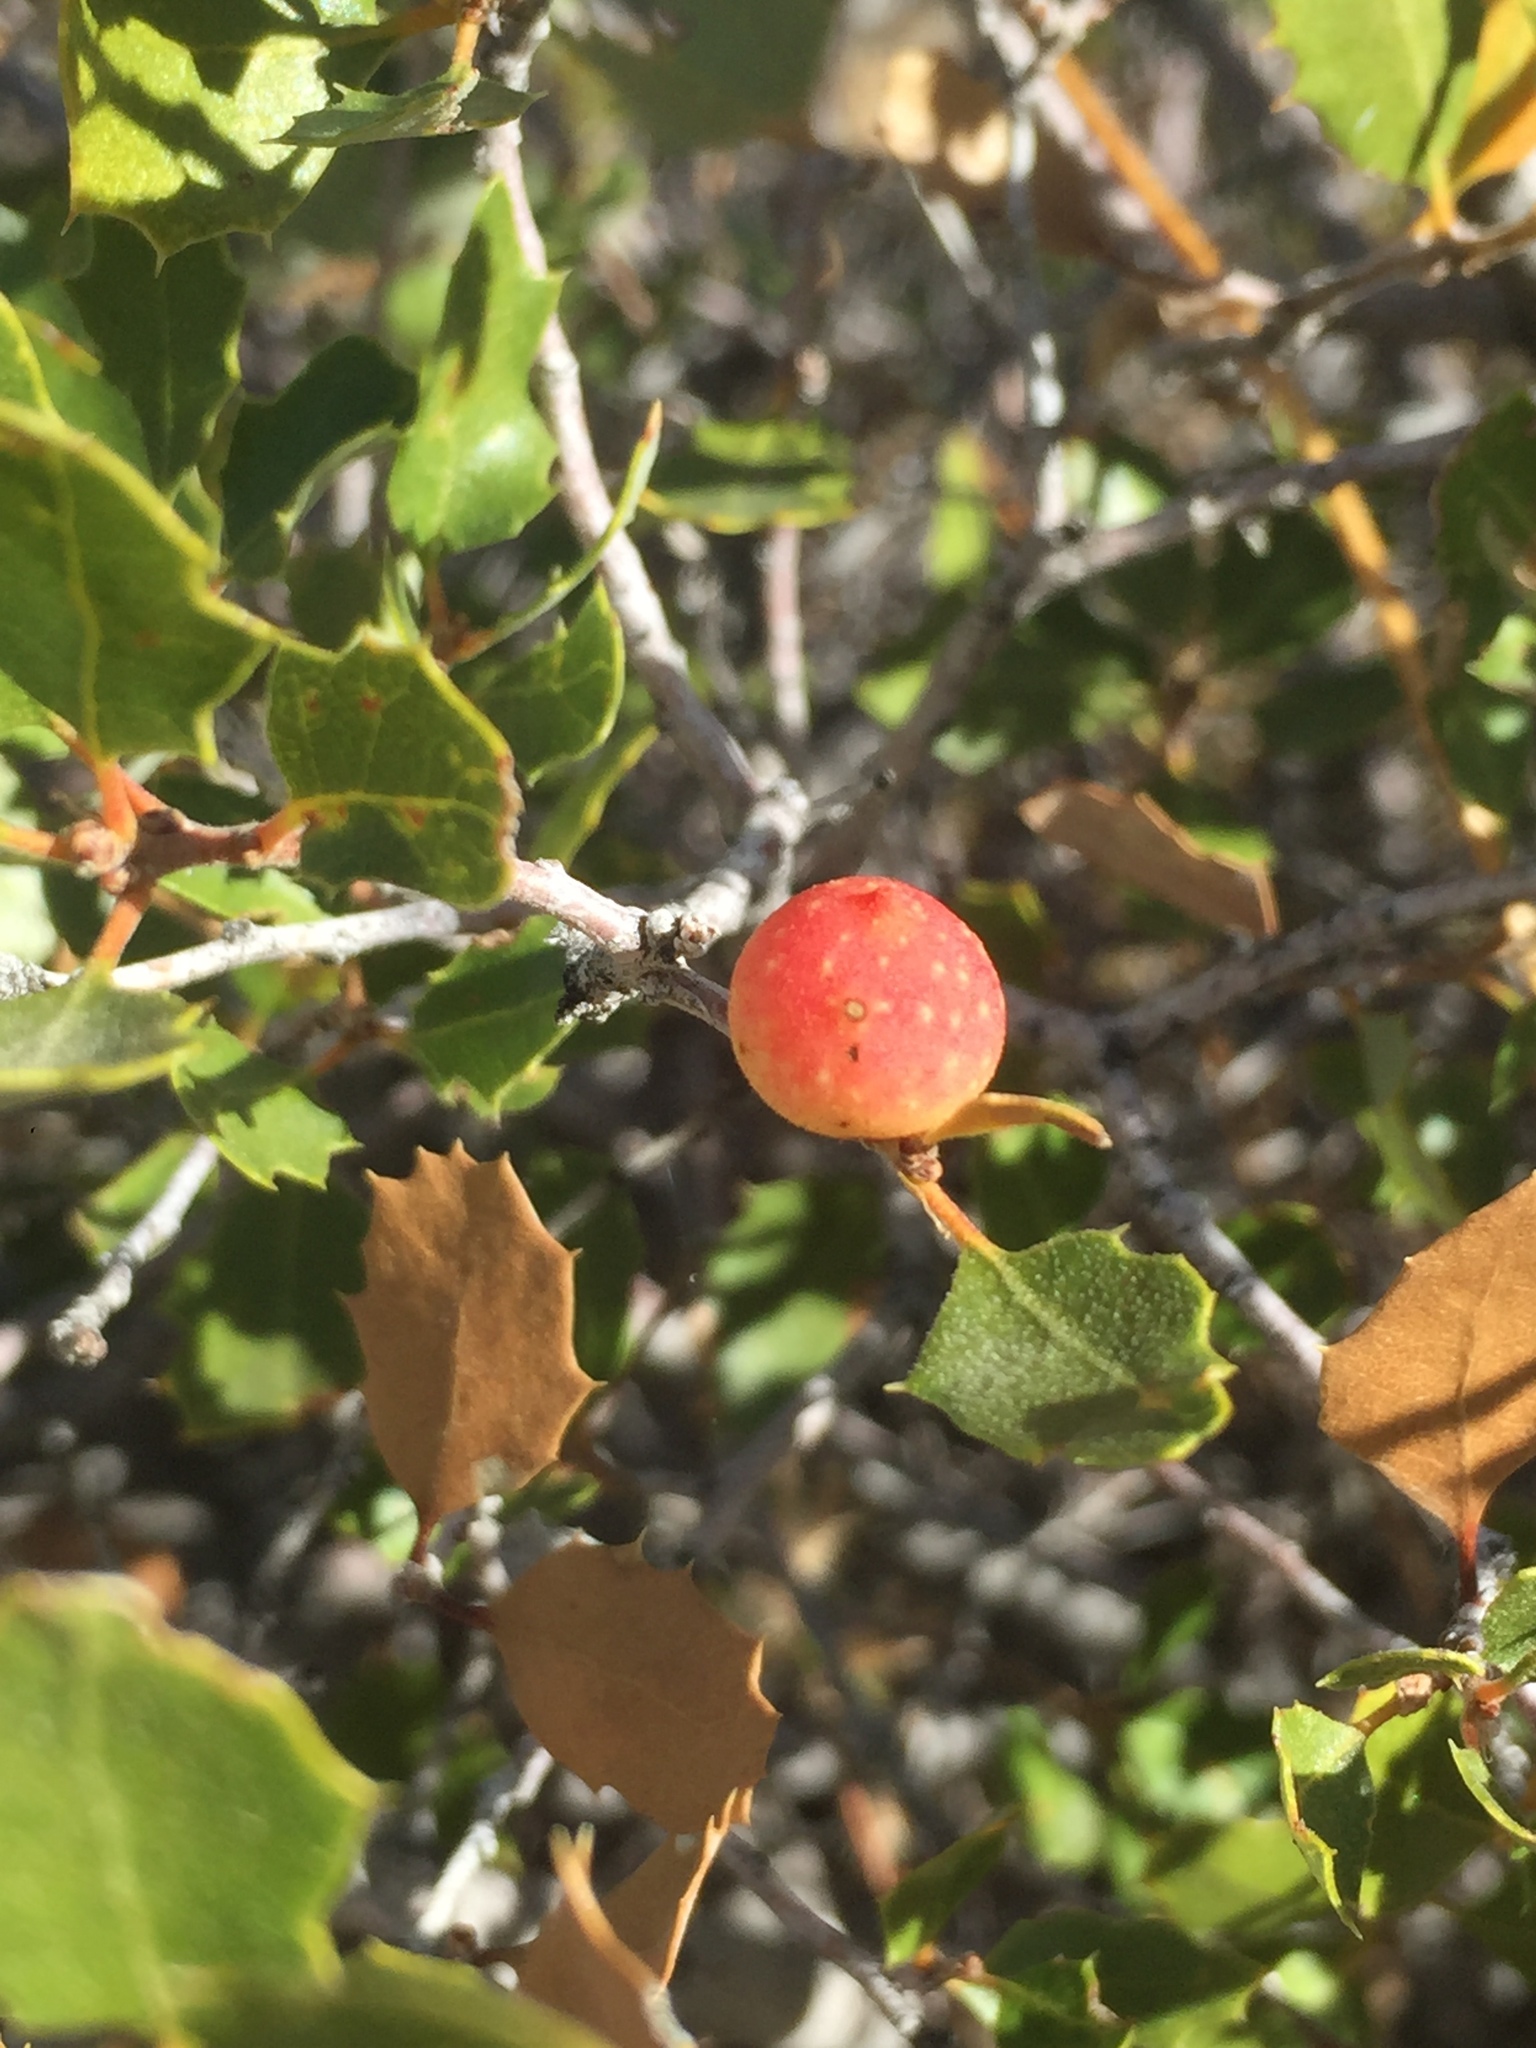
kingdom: Animalia
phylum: Arthropoda
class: Insecta
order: Hymenoptera
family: Cynipidae
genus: Burnettweldia
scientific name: Burnettweldia
